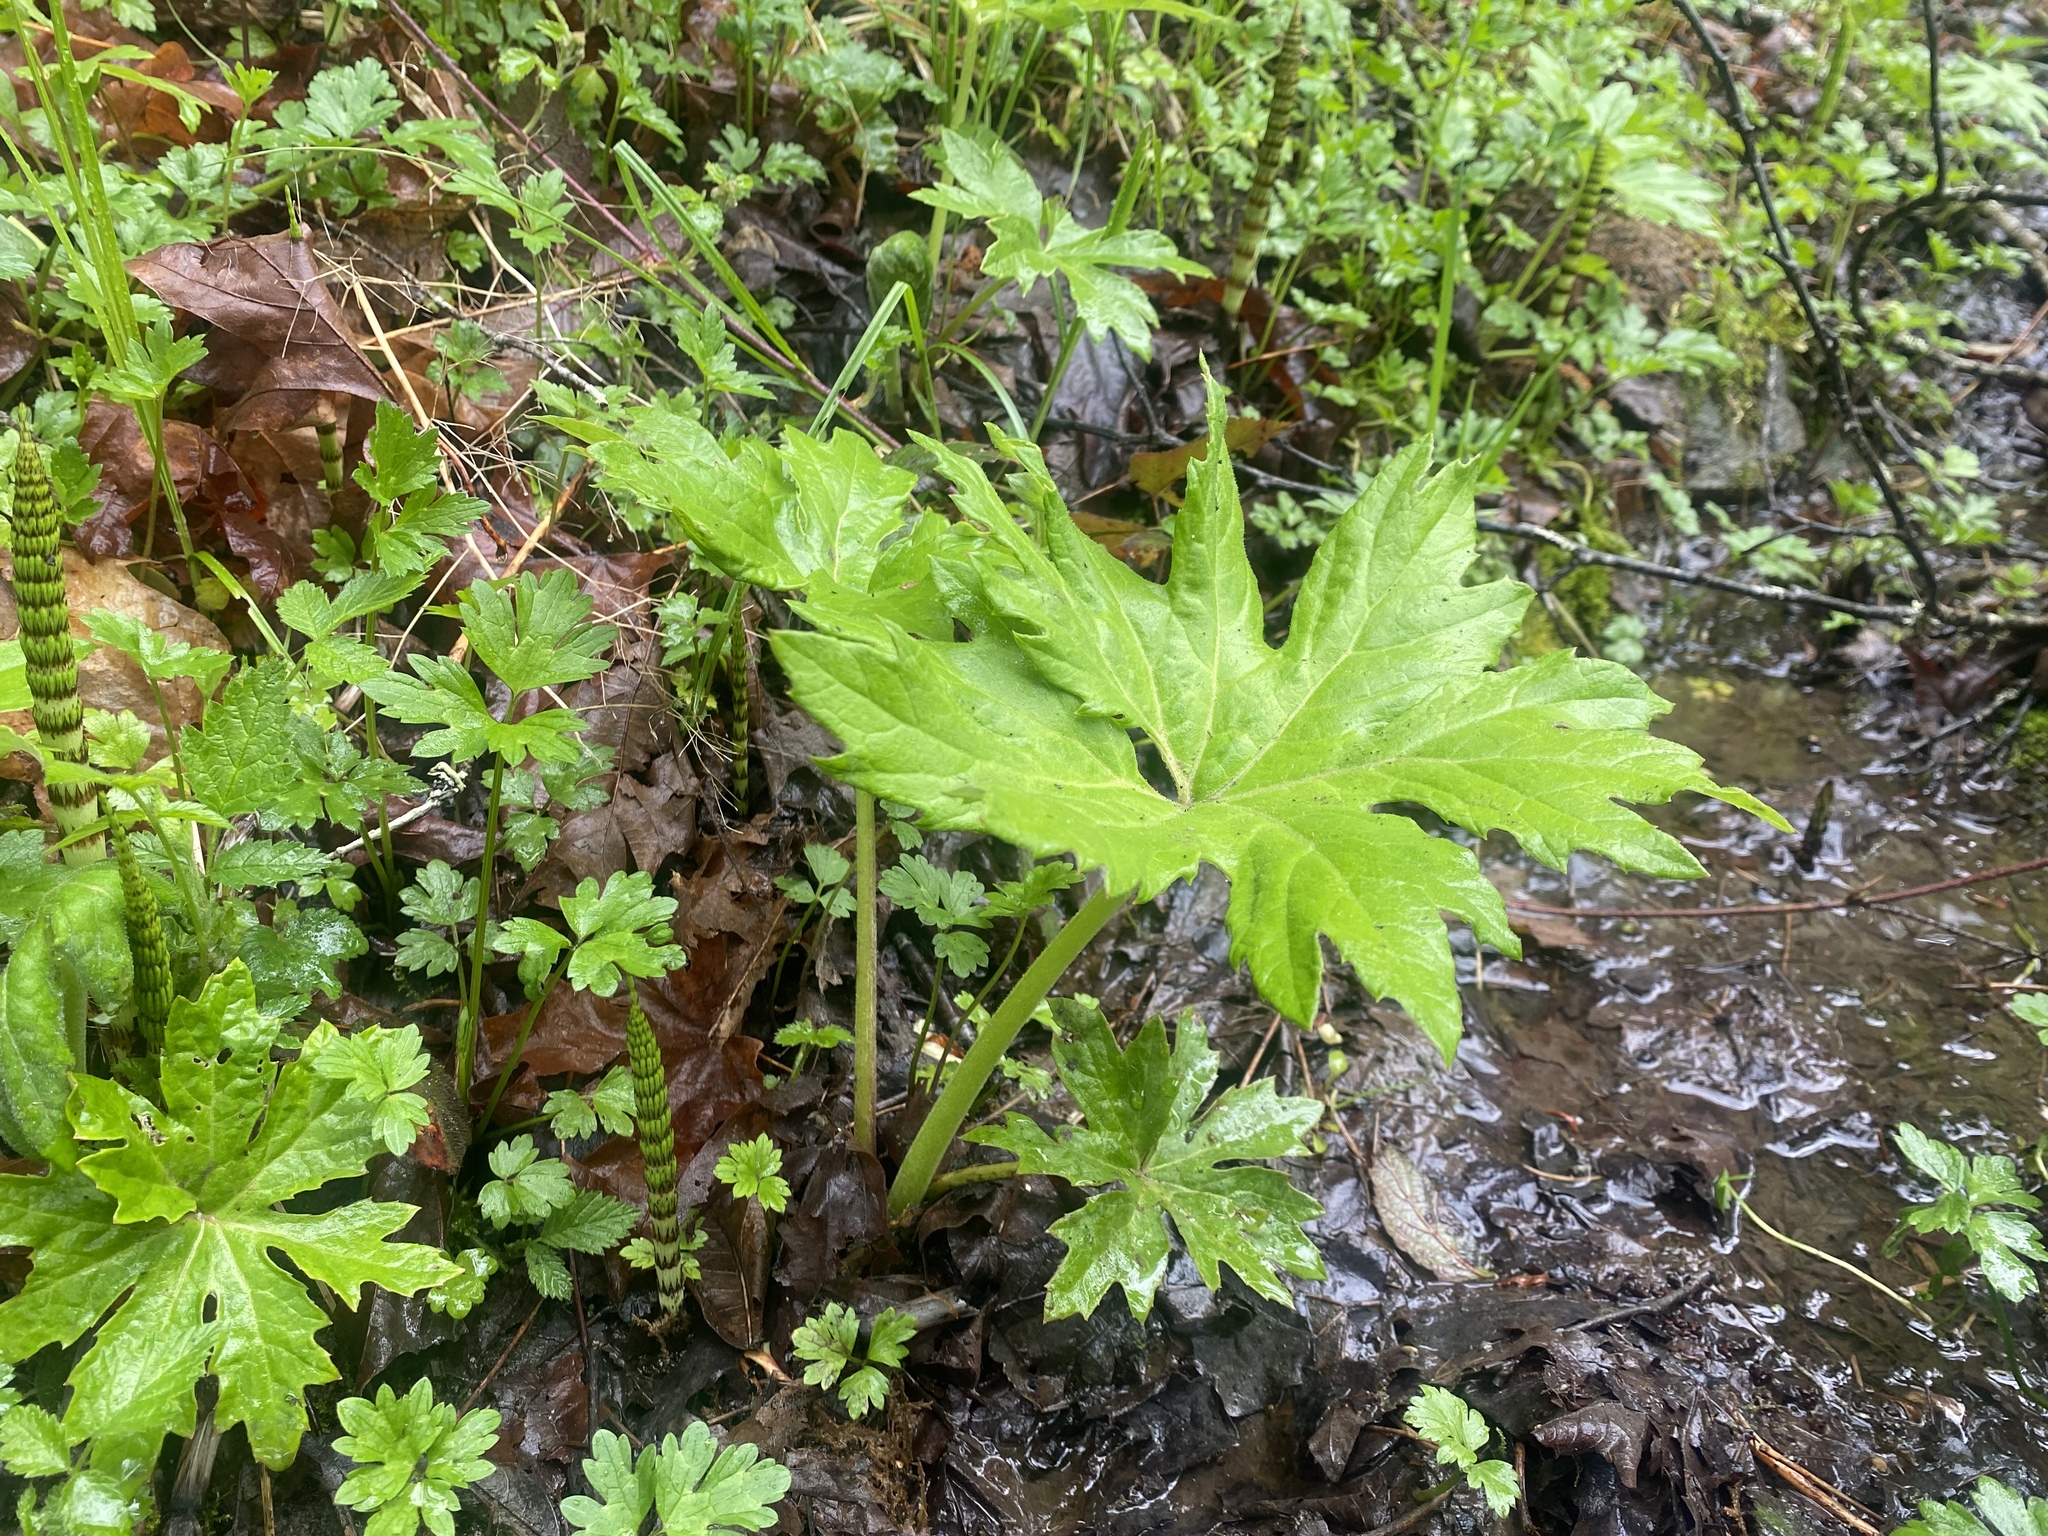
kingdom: Plantae
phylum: Tracheophyta
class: Magnoliopsida
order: Asterales
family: Asteraceae
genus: Petasites
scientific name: Petasites frigidus
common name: Arctic butterbur
